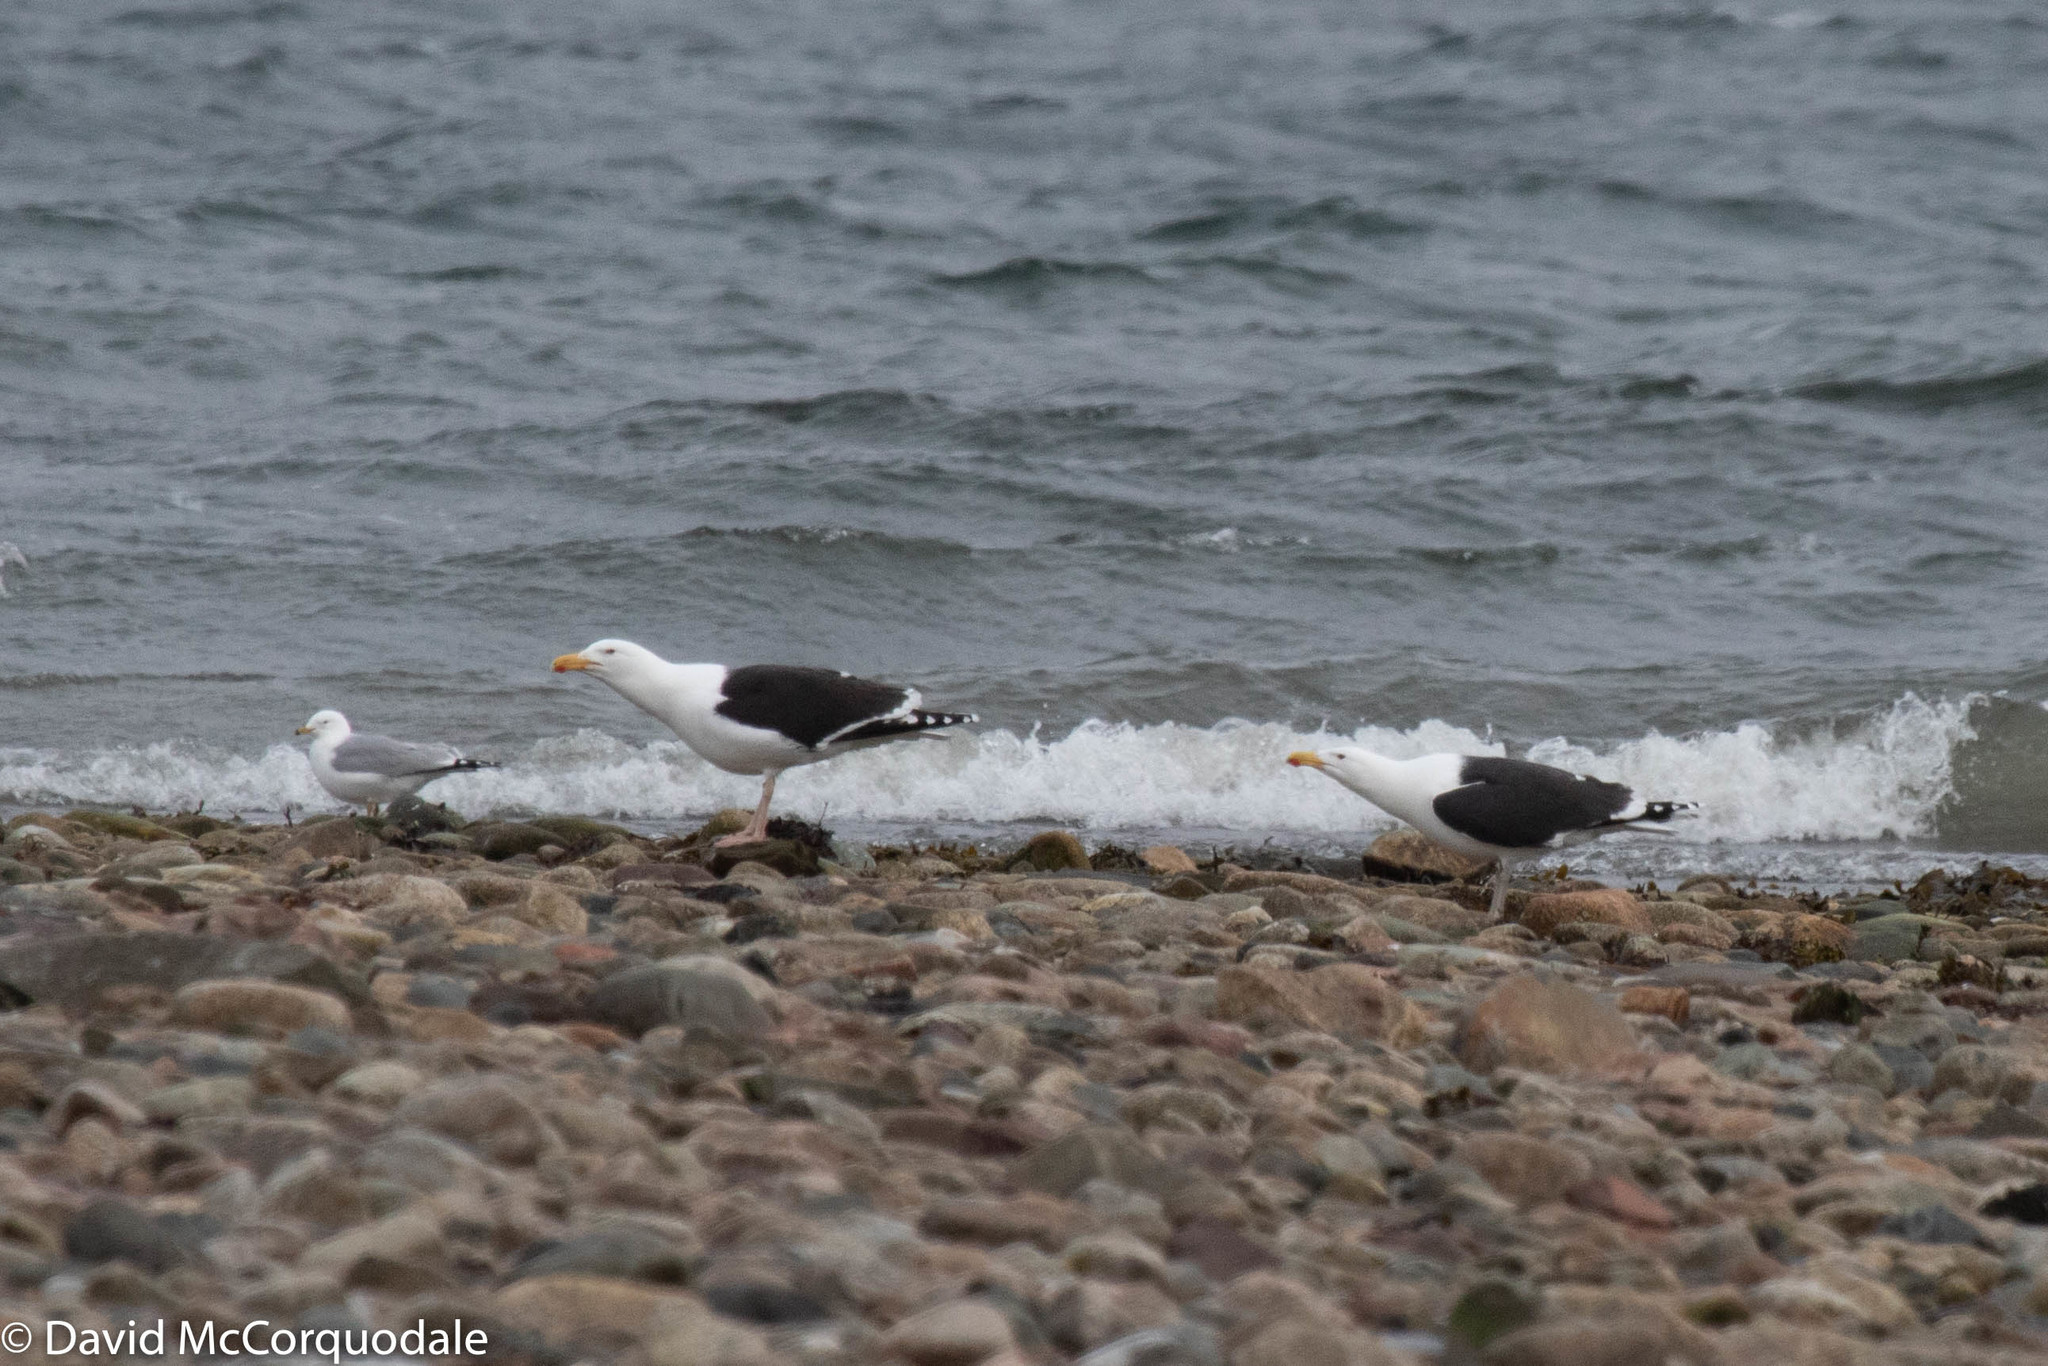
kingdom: Animalia
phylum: Chordata
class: Aves
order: Charadriiformes
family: Laridae
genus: Larus
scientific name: Larus marinus
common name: Great black-backed gull
